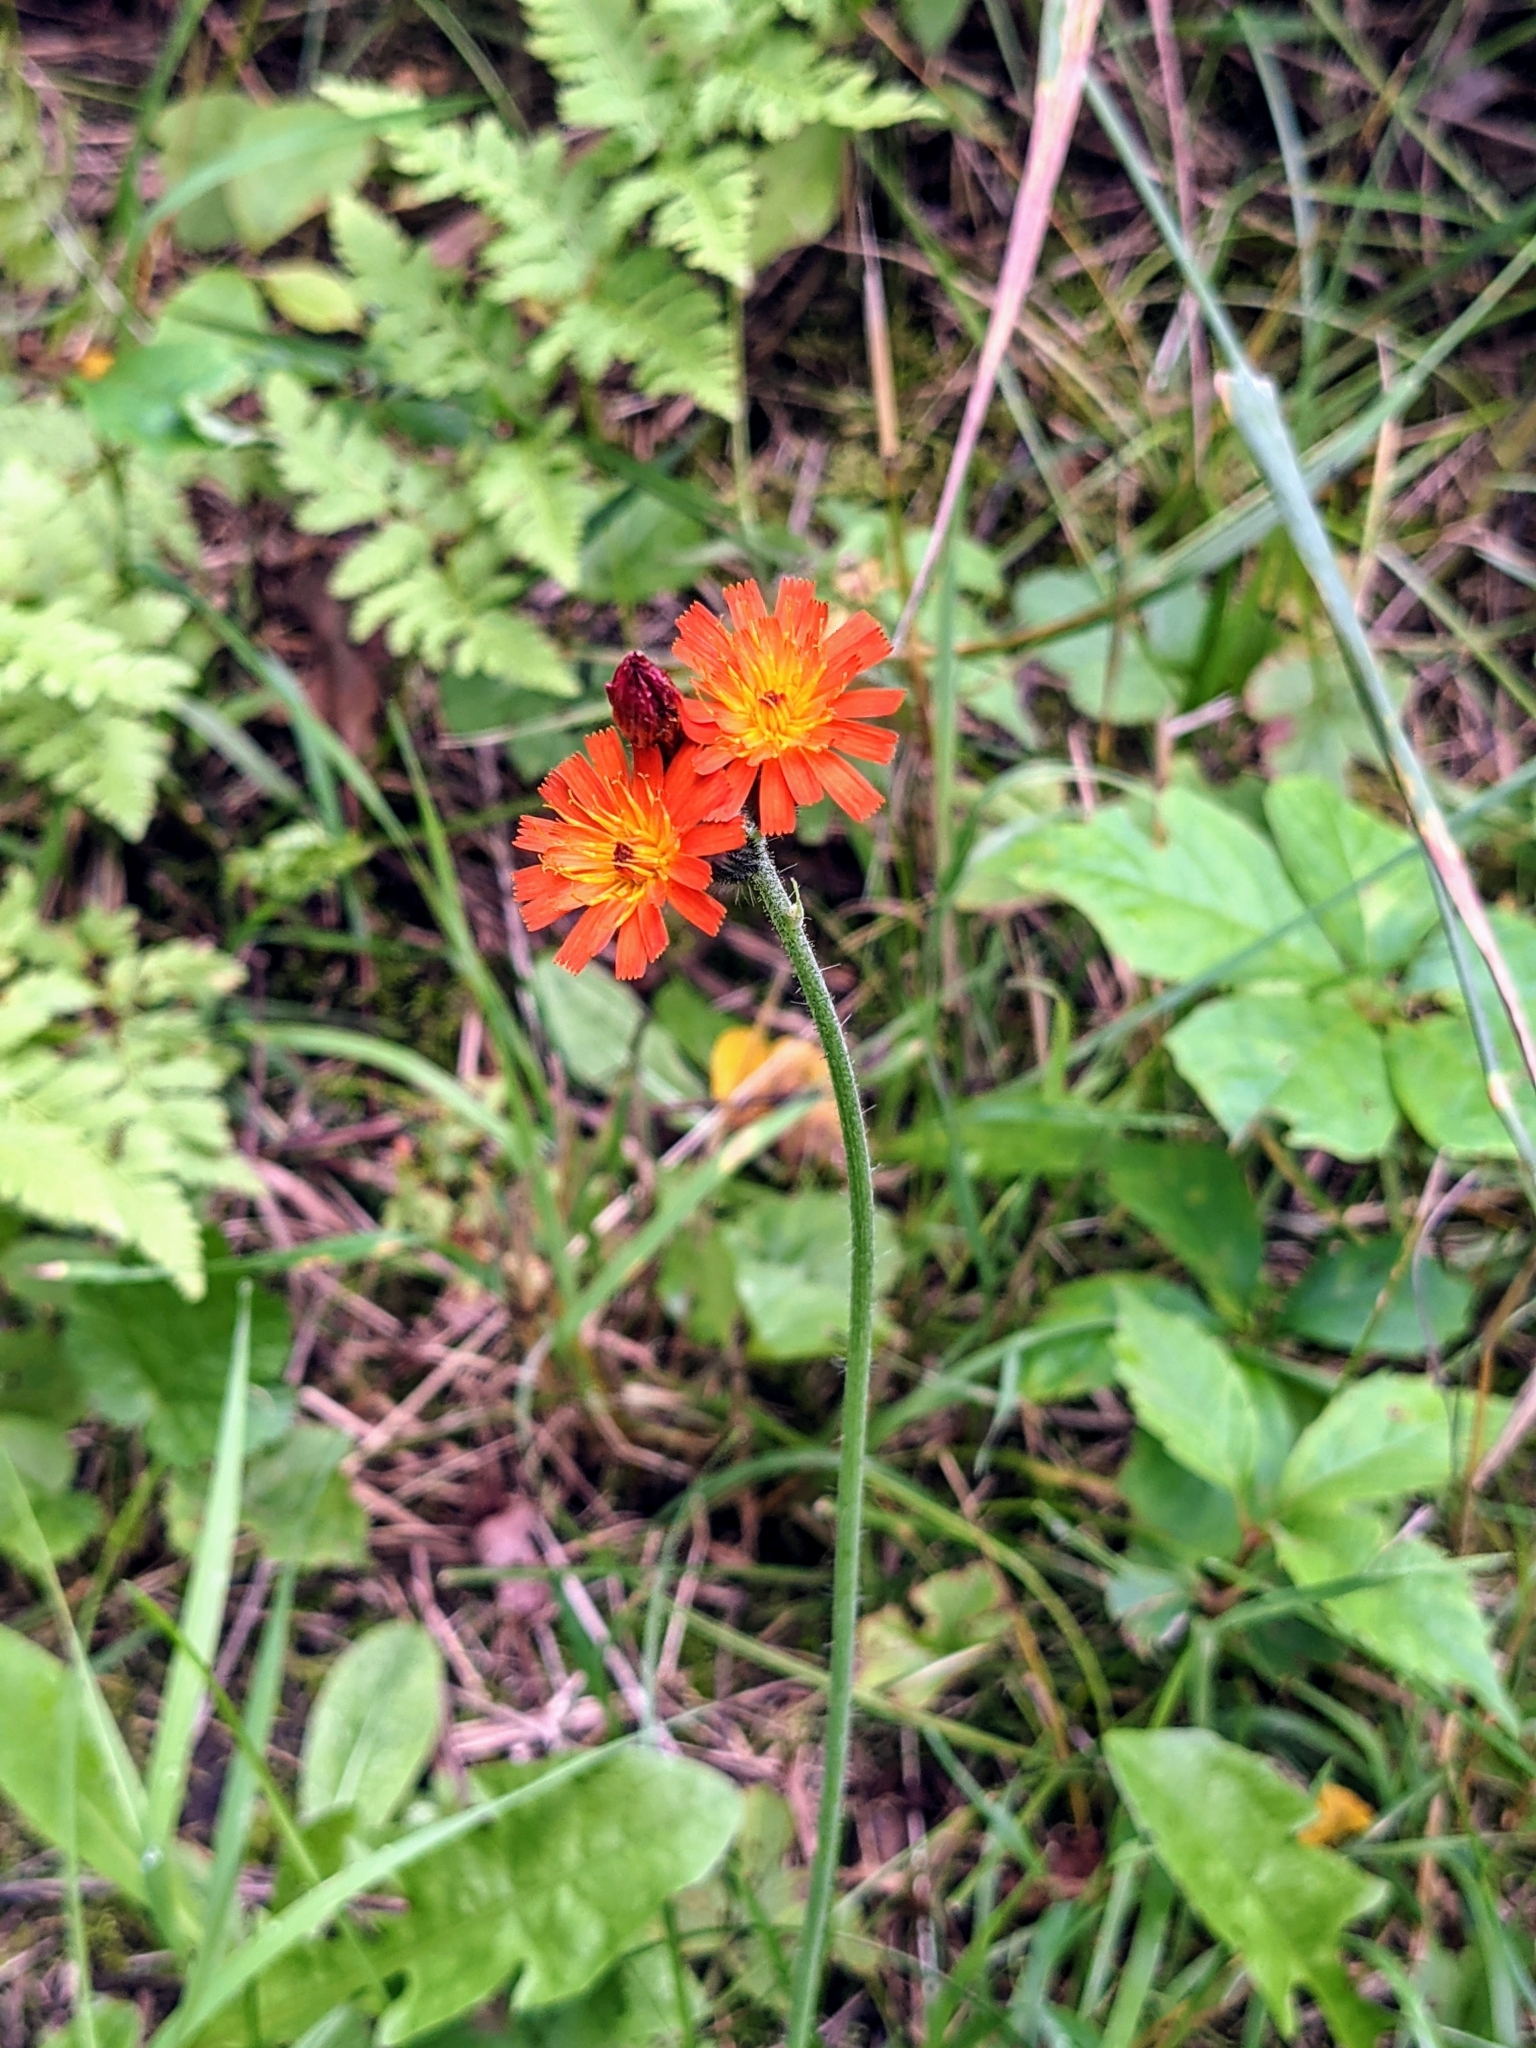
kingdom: Plantae
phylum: Tracheophyta
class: Magnoliopsida
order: Asterales
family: Asteraceae
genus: Pilosella
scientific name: Pilosella aurantiaca
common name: Fox-and-cubs
